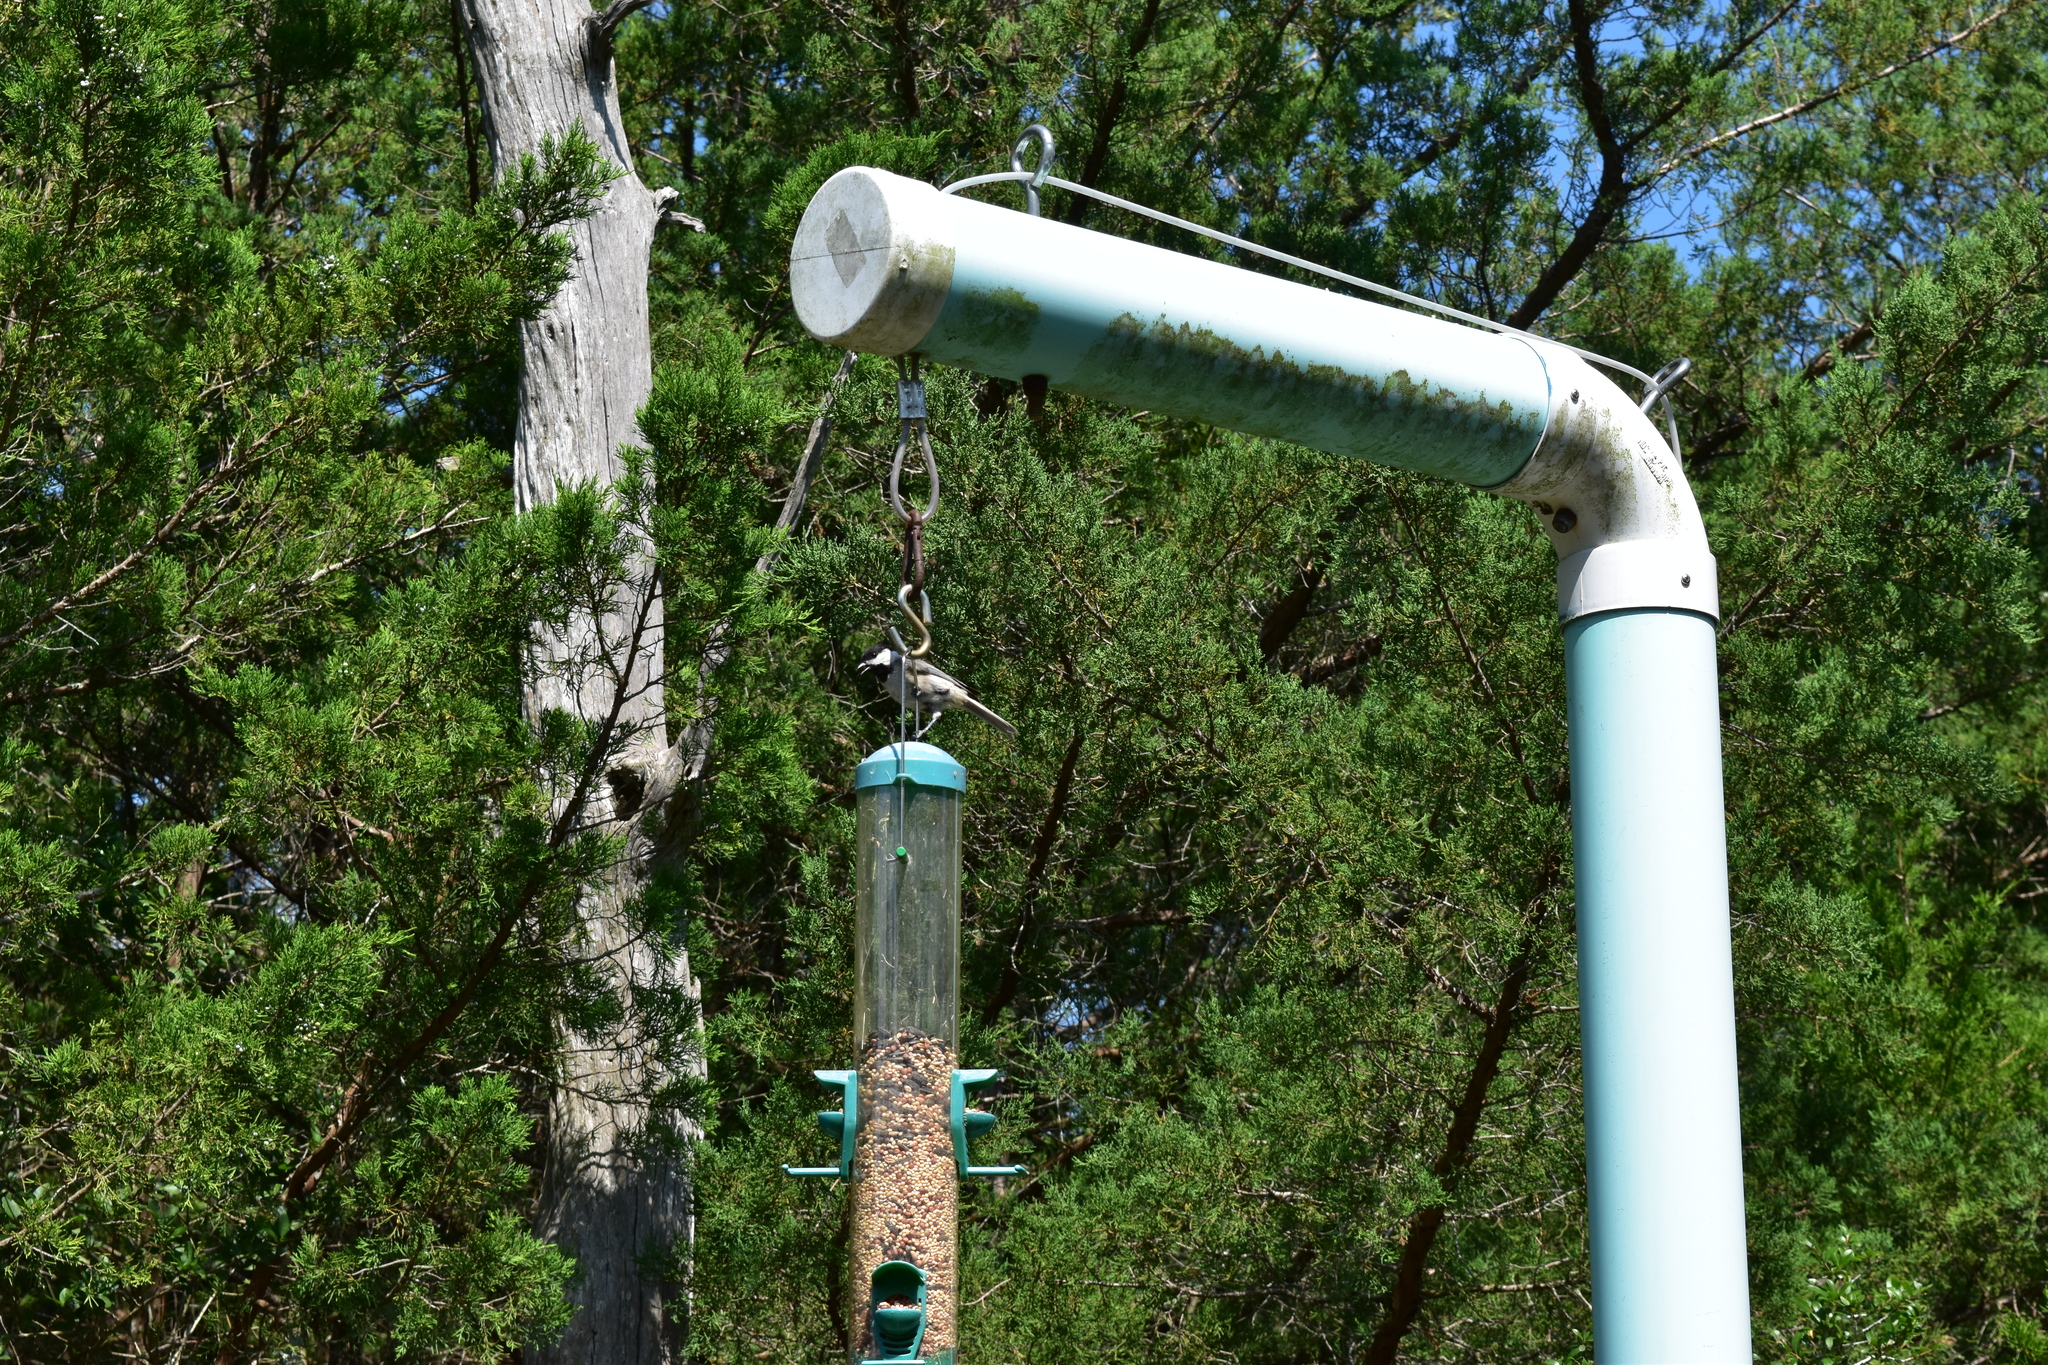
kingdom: Animalia
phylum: Chordata
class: Aves
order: Passeriformes
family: Paridae
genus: Poecile
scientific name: Poecile carolinensis
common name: Carolina chickadee
